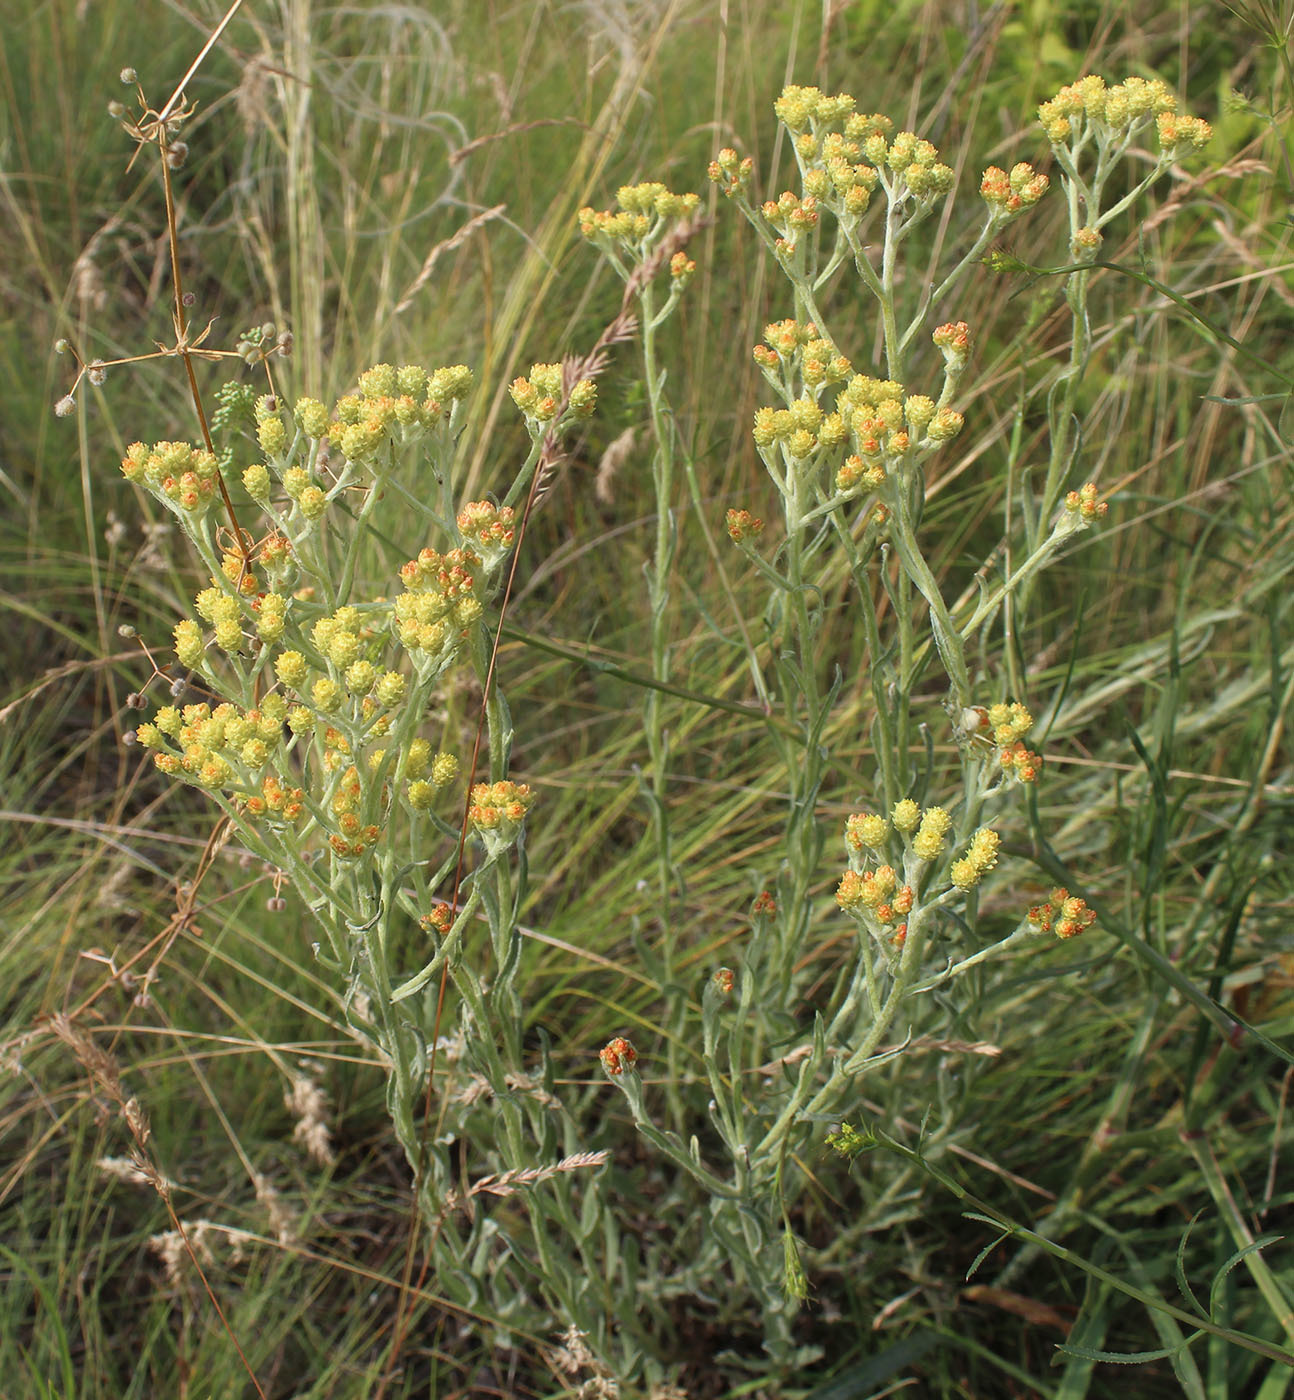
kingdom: Plantae
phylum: Tracheophyta
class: Magnoliopsida
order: Asterales
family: Asteraceae
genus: Helichrysum
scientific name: Helichrysum arenarium
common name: Strawflower
